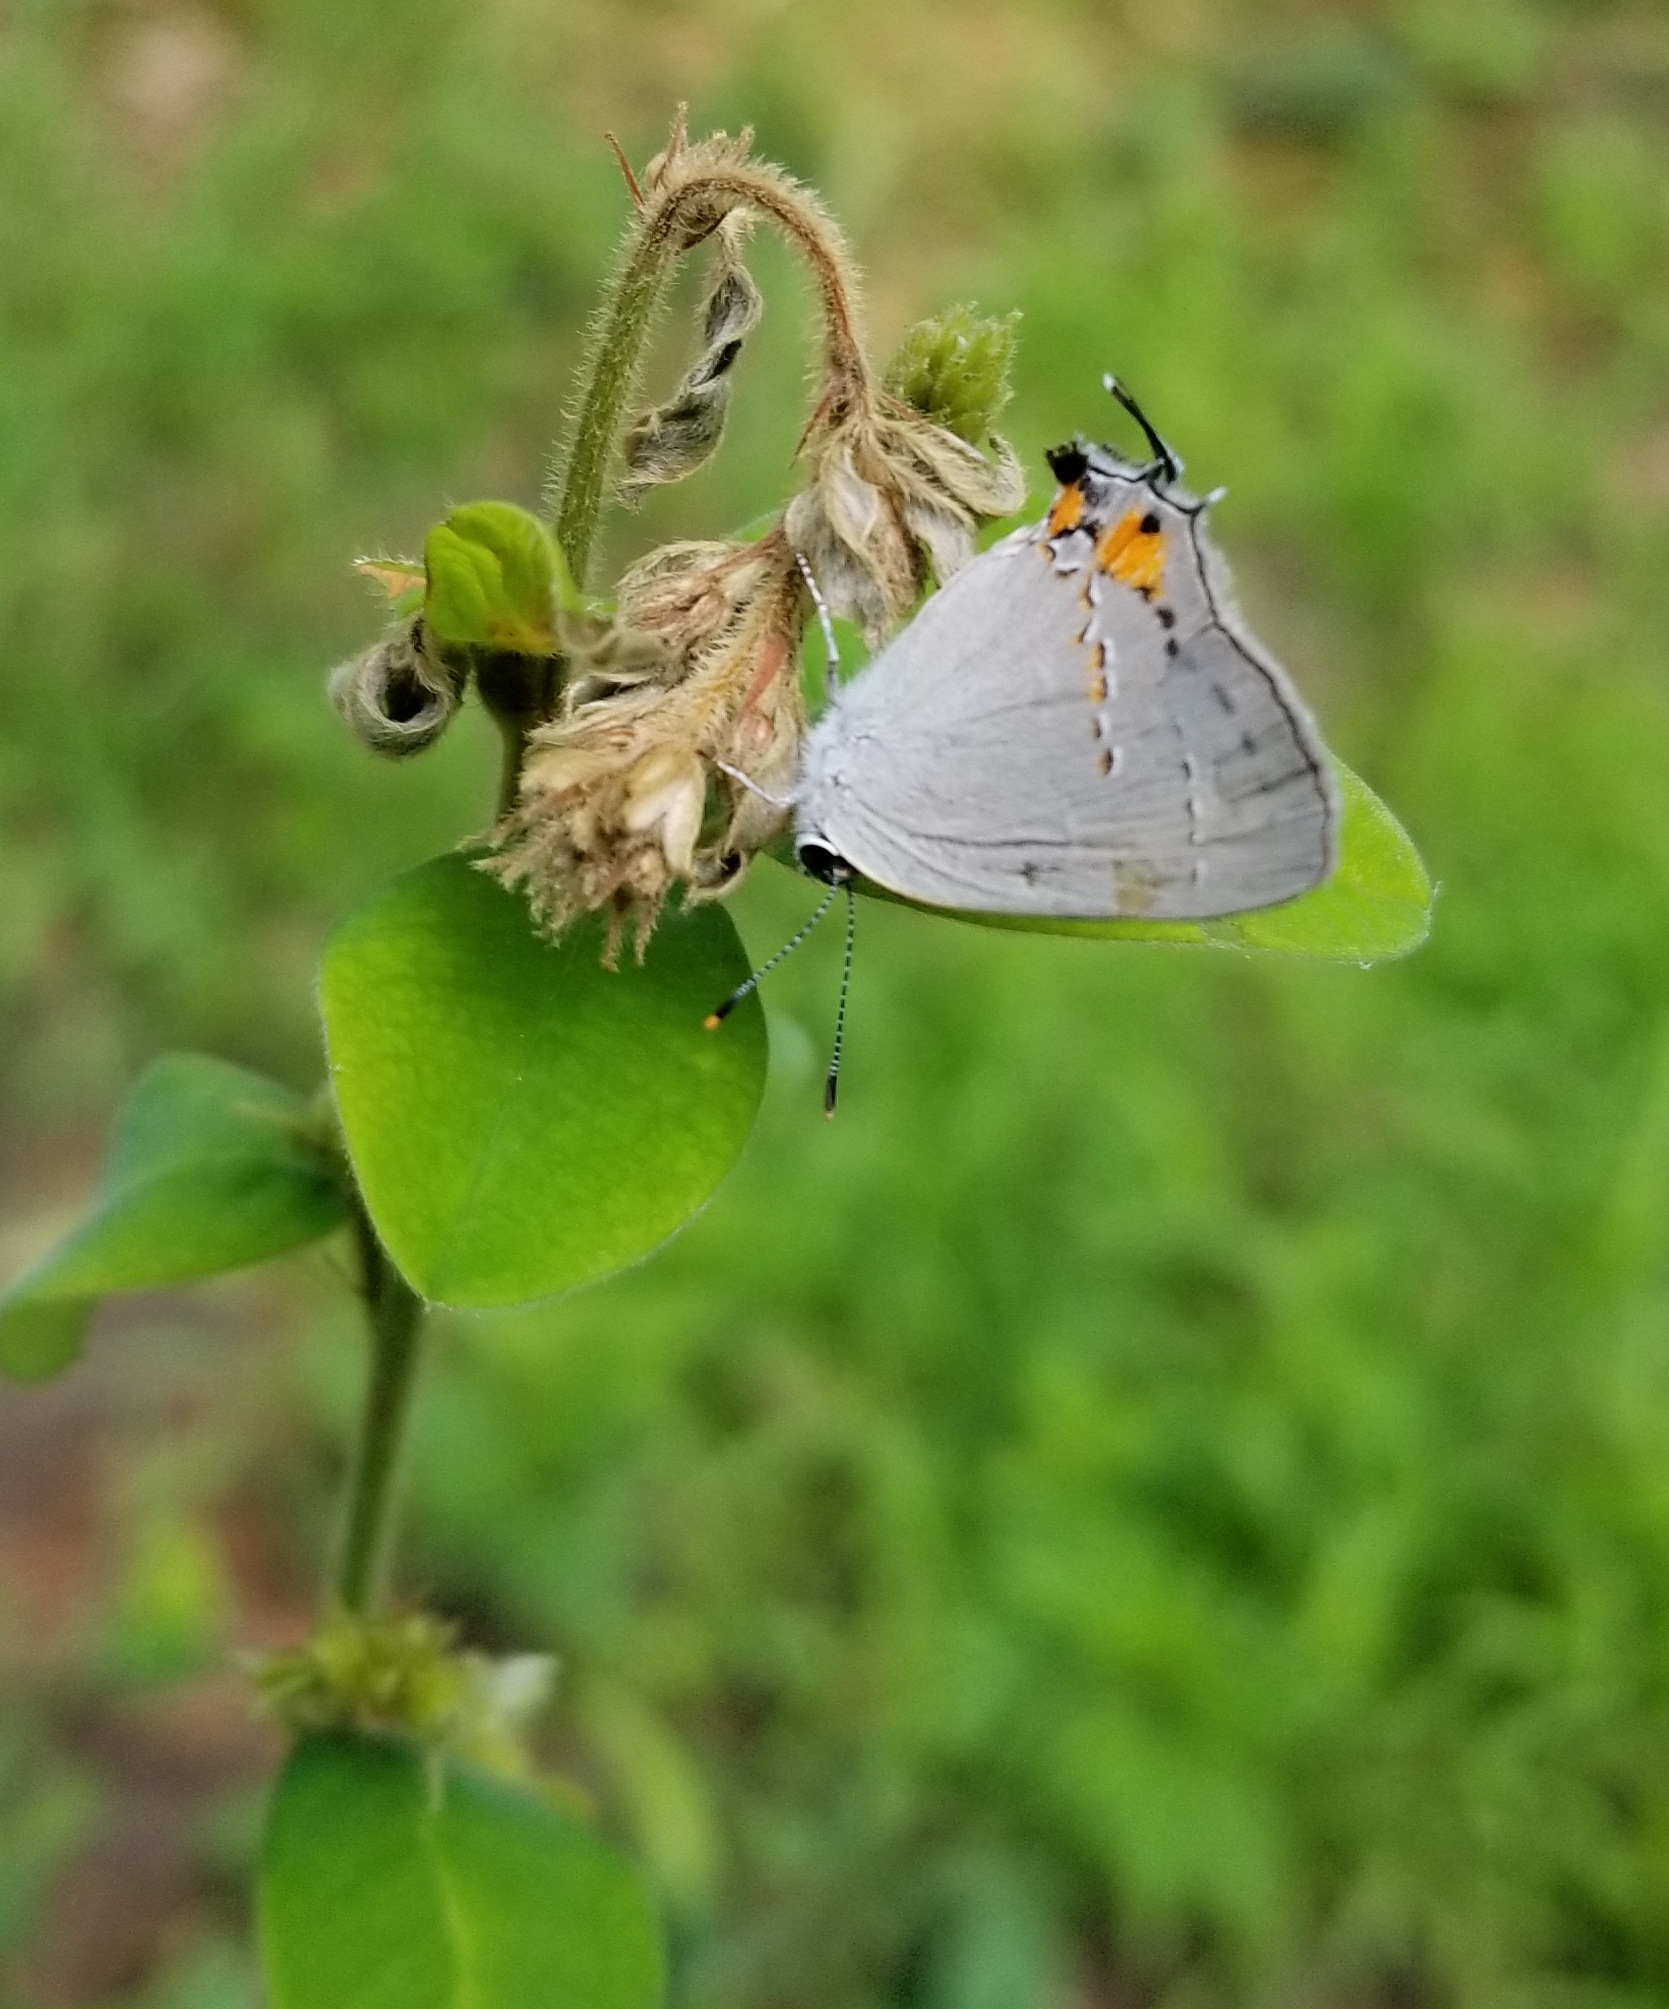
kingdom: Animalia
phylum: Arthropoda
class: Insecta
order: Lepidoptera
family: Lycaenidae
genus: Strymon
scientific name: Strymon melinus
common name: Gray hairstreak
